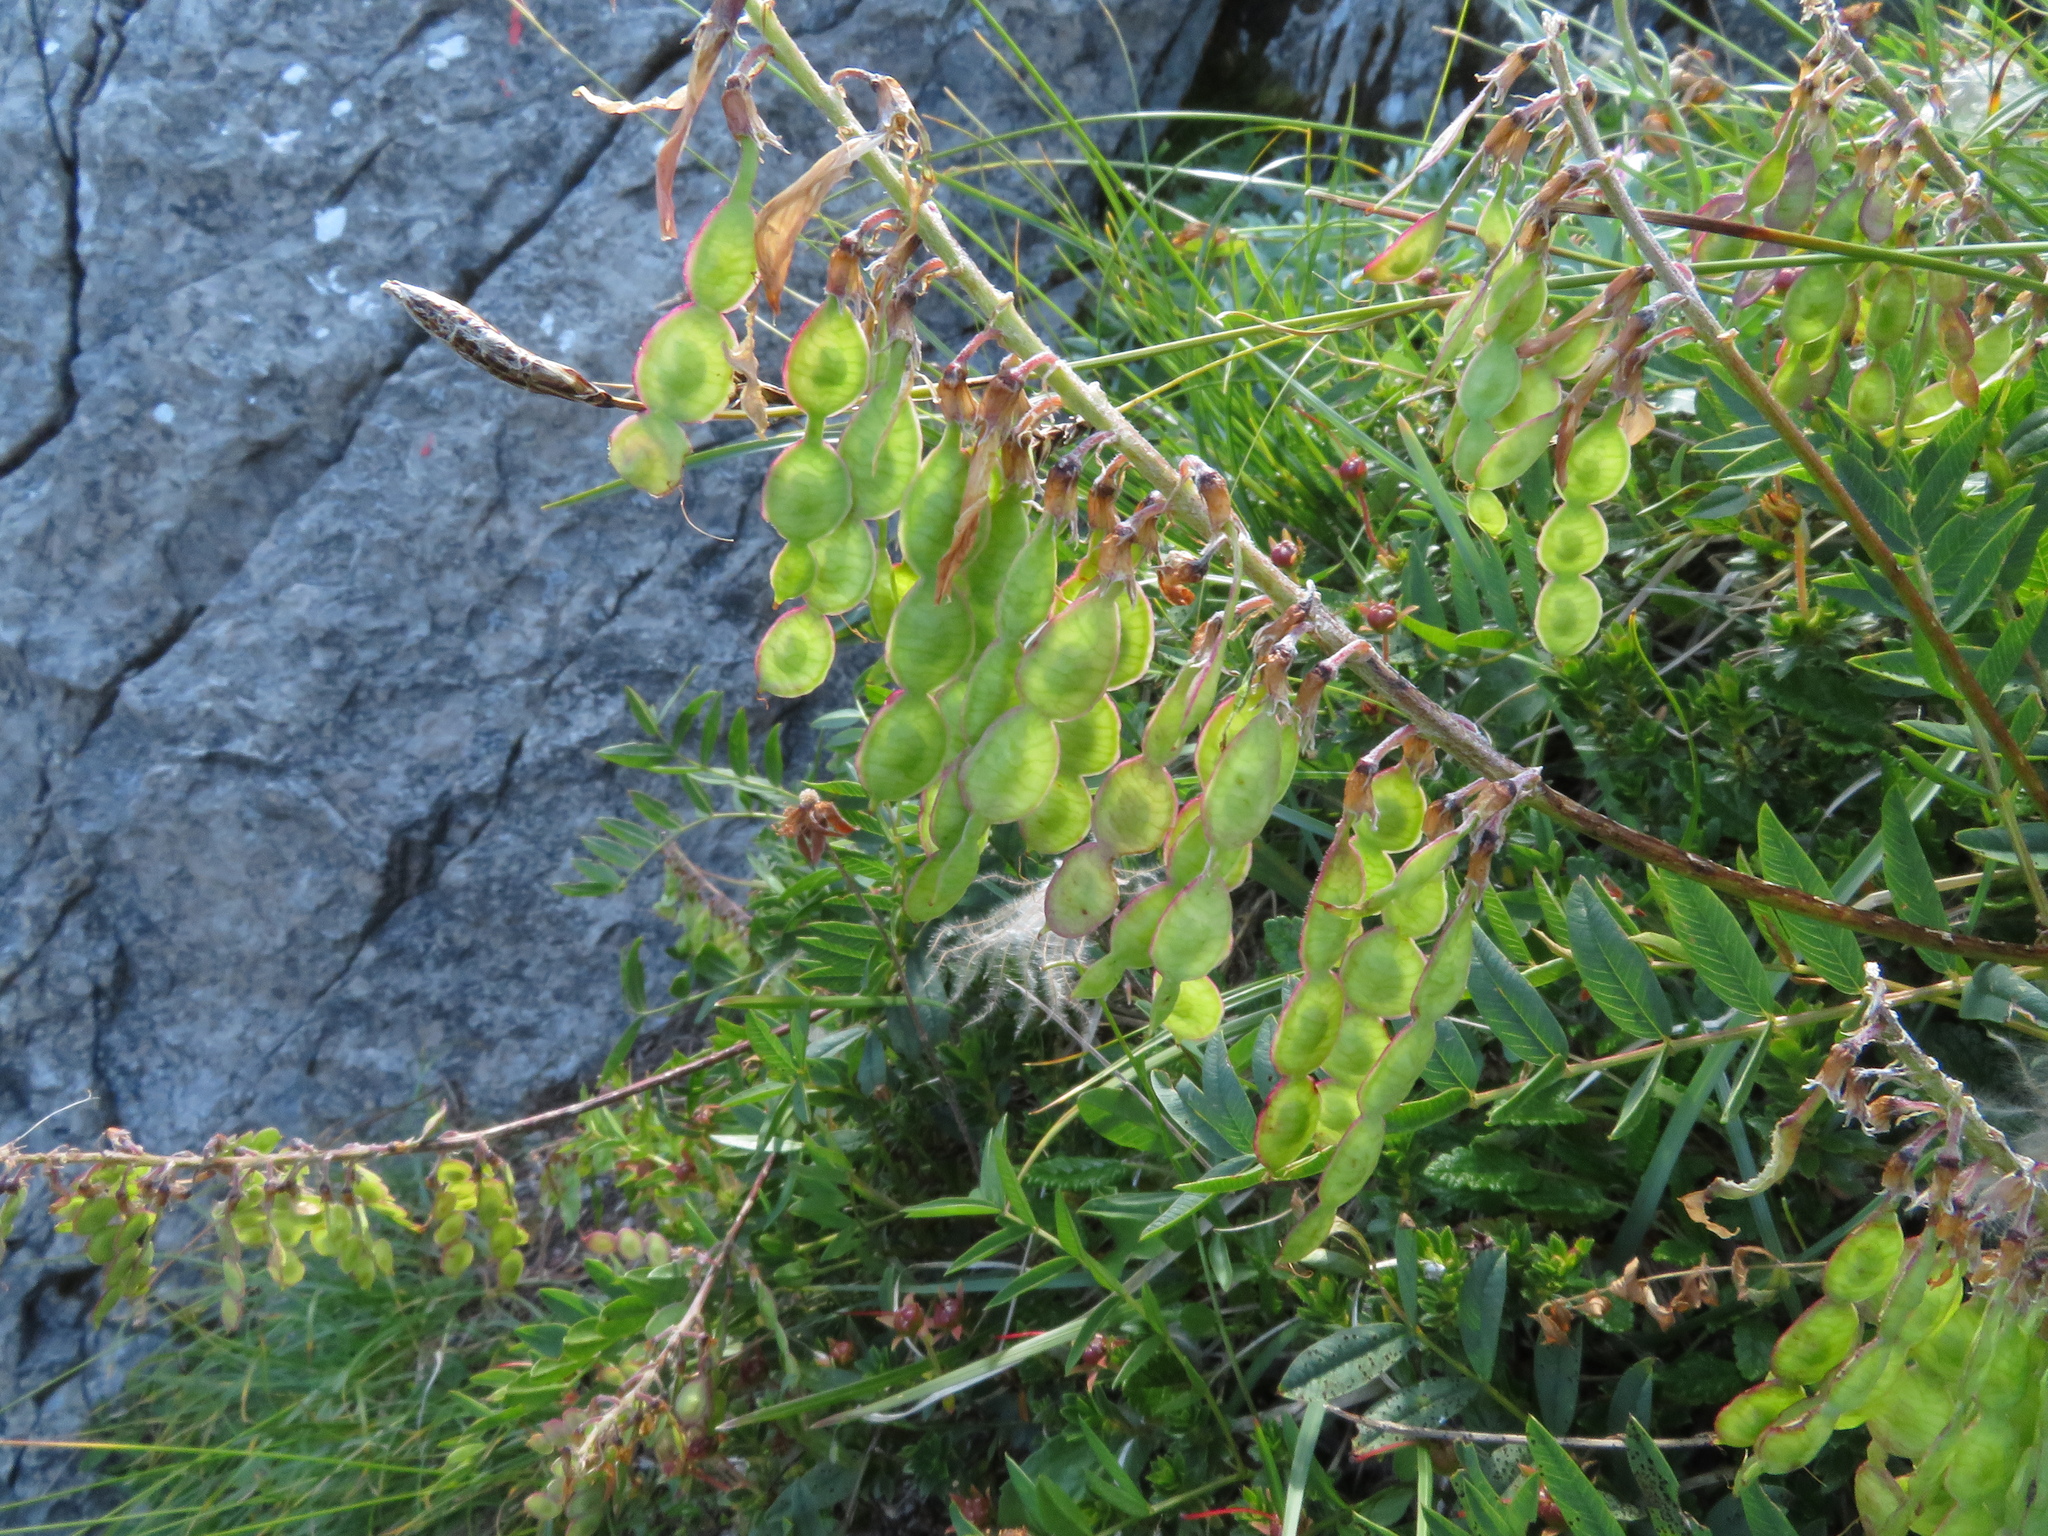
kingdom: Plantae
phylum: Tracheophyta
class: Magnoliopsida
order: Fabales
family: Fabaceae
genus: Hedysarum
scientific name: Hedysarum hedysaroides
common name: Alpine french-honeysuckle
